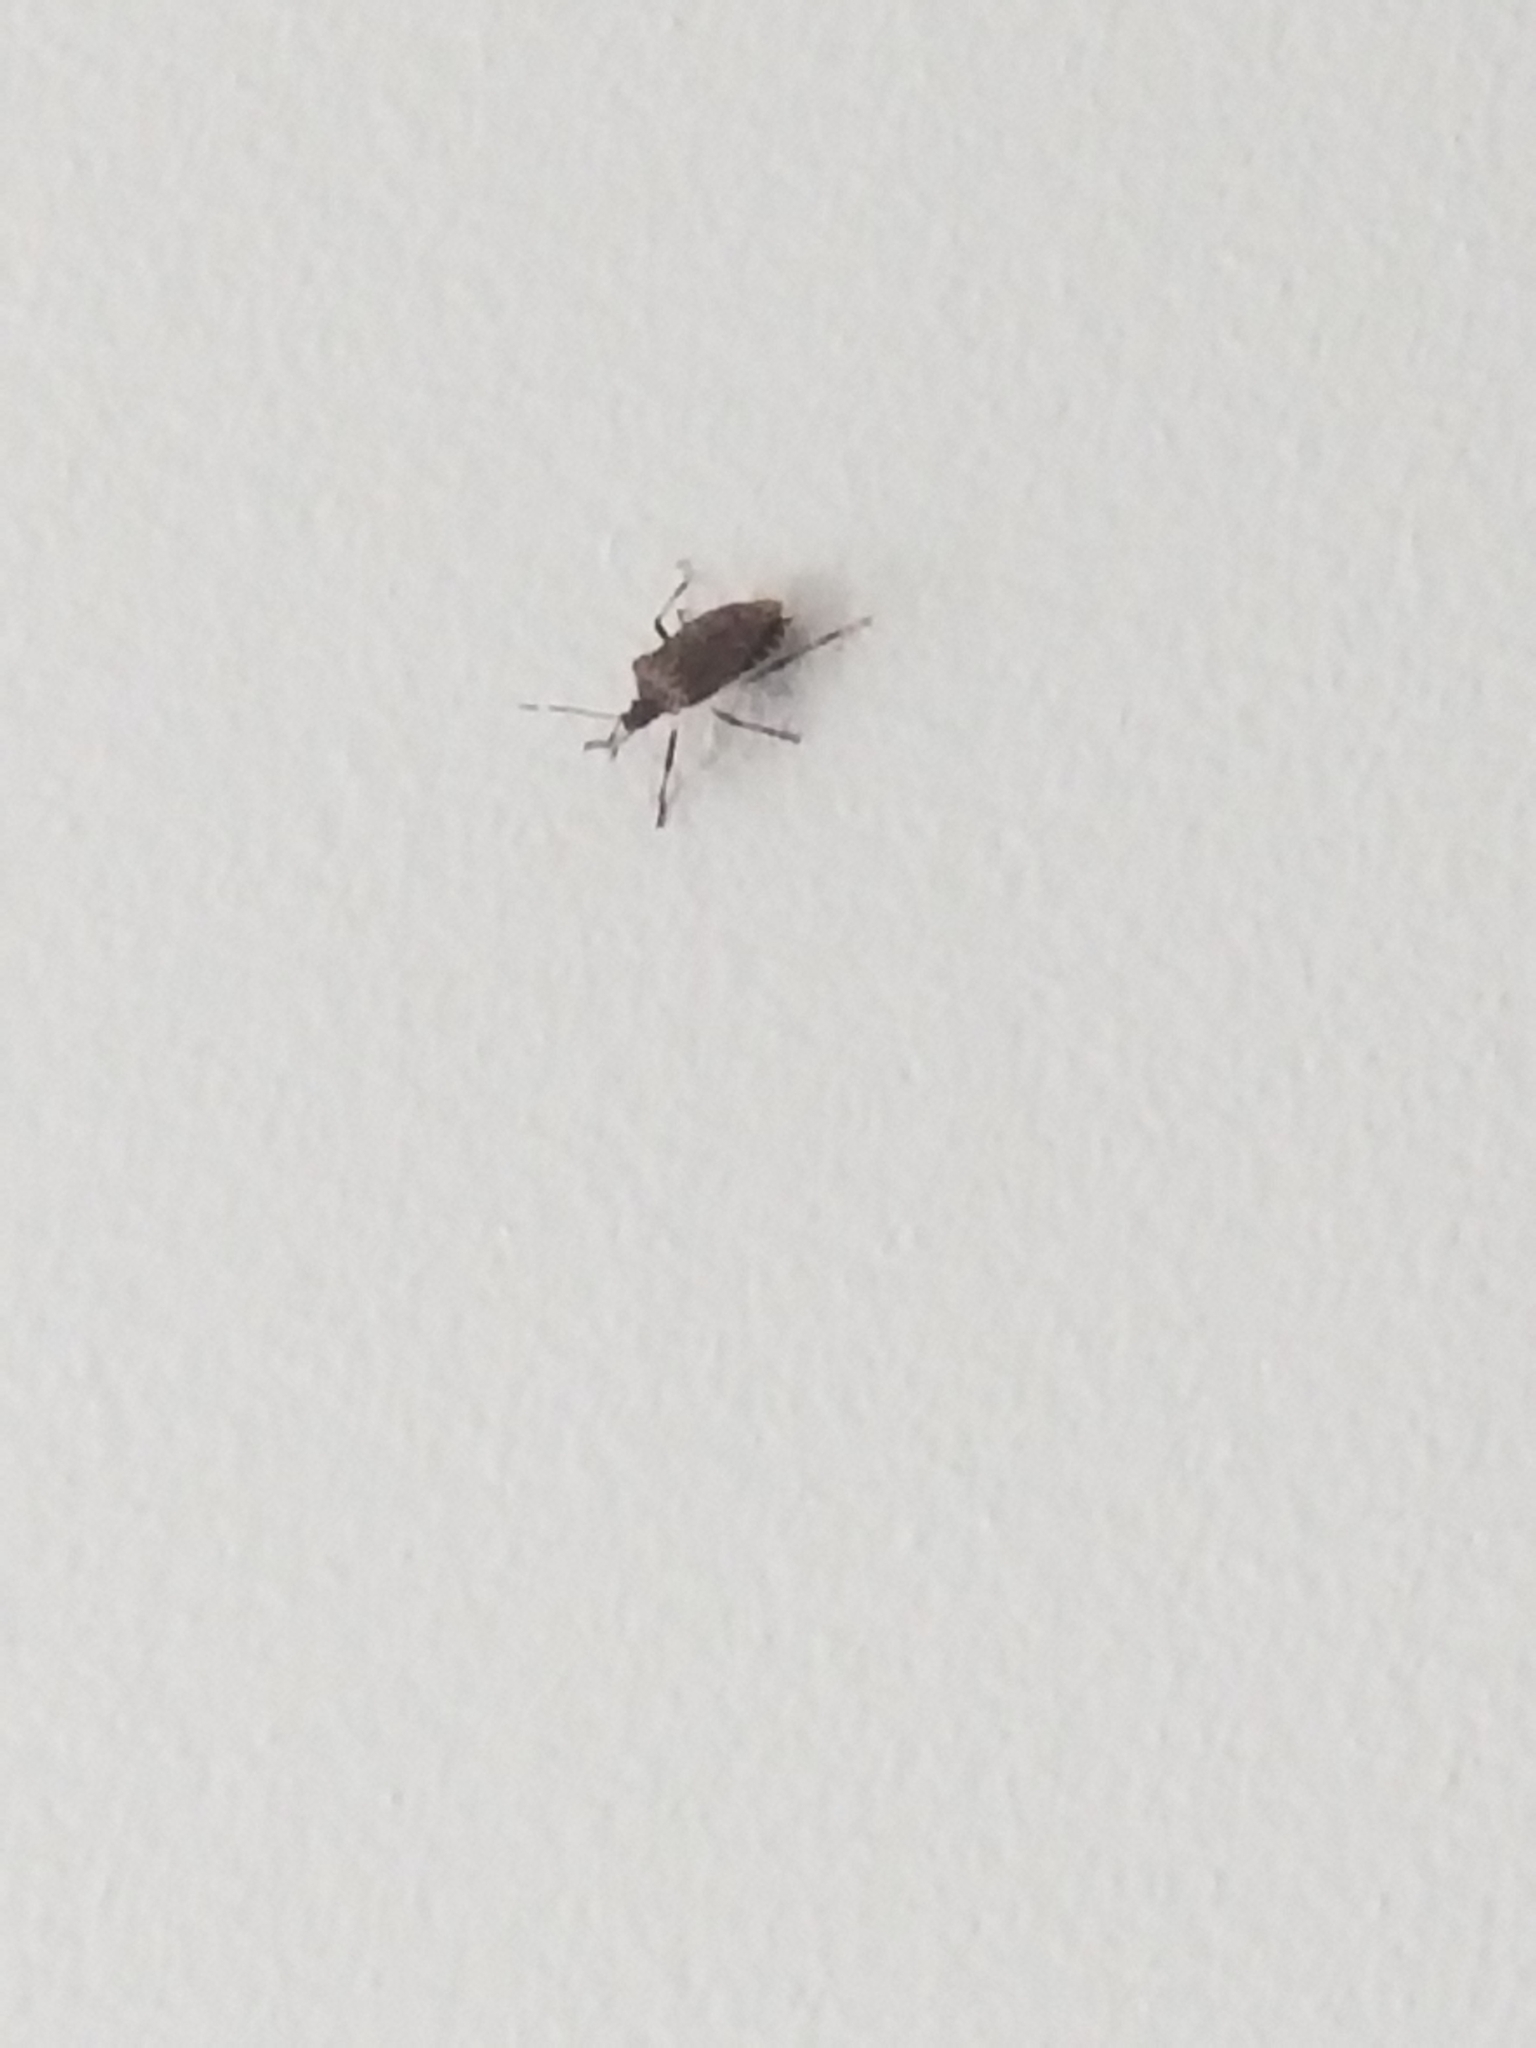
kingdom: Animalia
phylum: Arthropoda
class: Insecta
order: Hemiptera
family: Pentatomidae
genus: Halyomorpha
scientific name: Halyomorpha halys
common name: Brown marmorated stink bug
